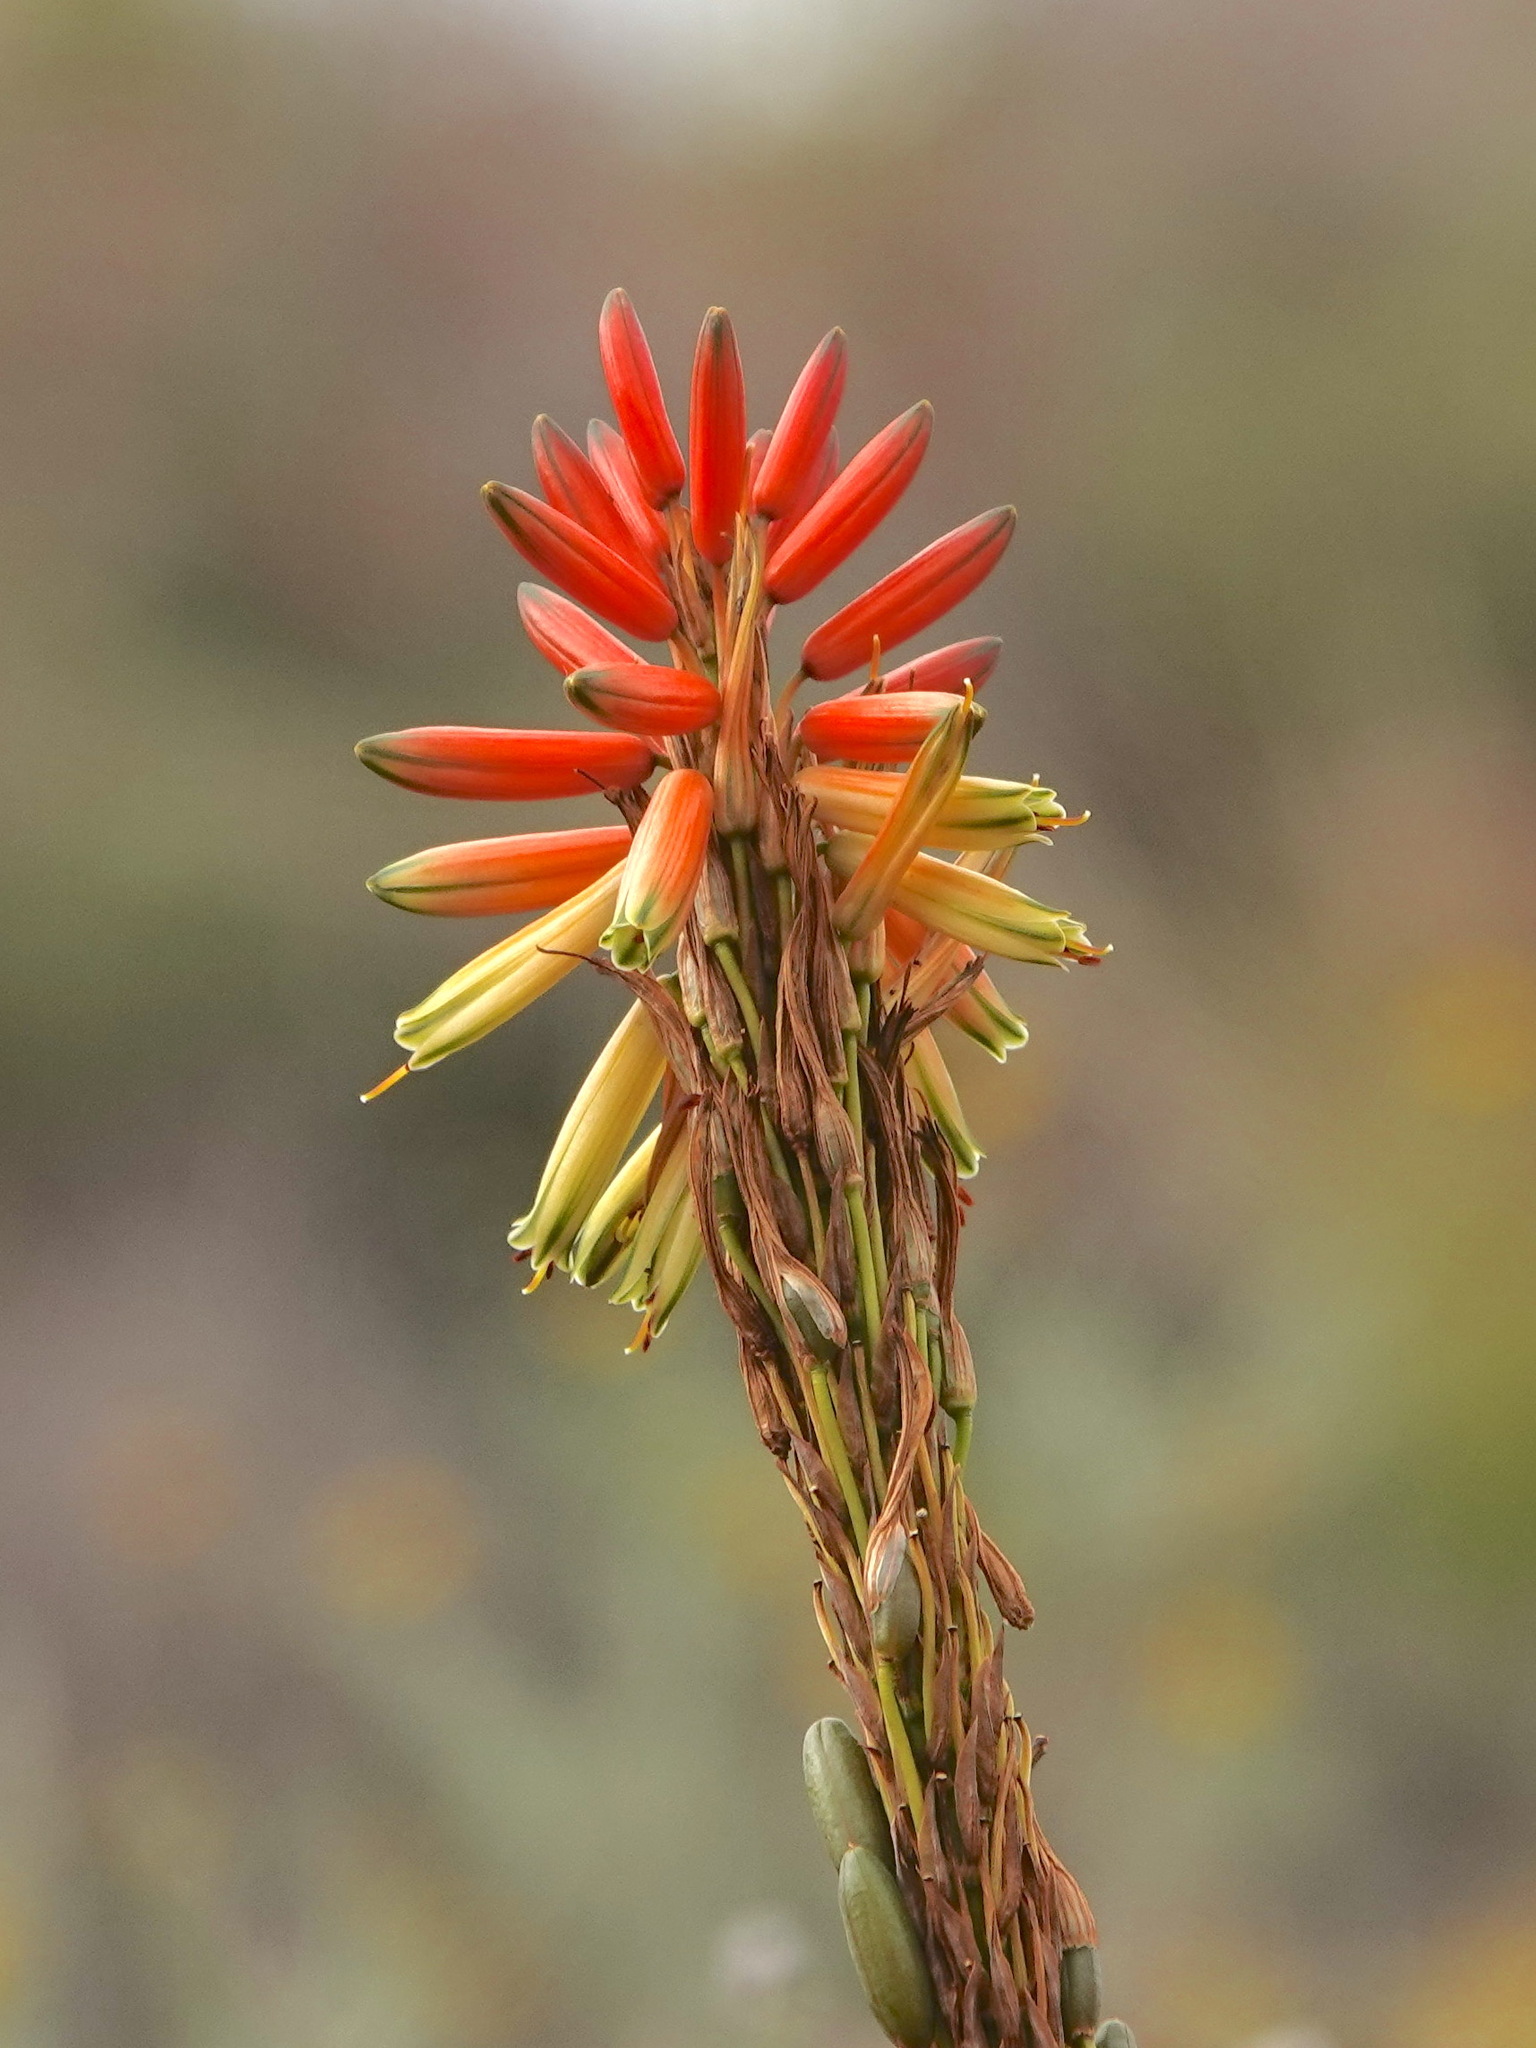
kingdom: Plantae
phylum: Tracheophyta
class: Liliopsida
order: Asparagales
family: Asphodelaceae
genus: Aloe
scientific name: Aloe microstigma
